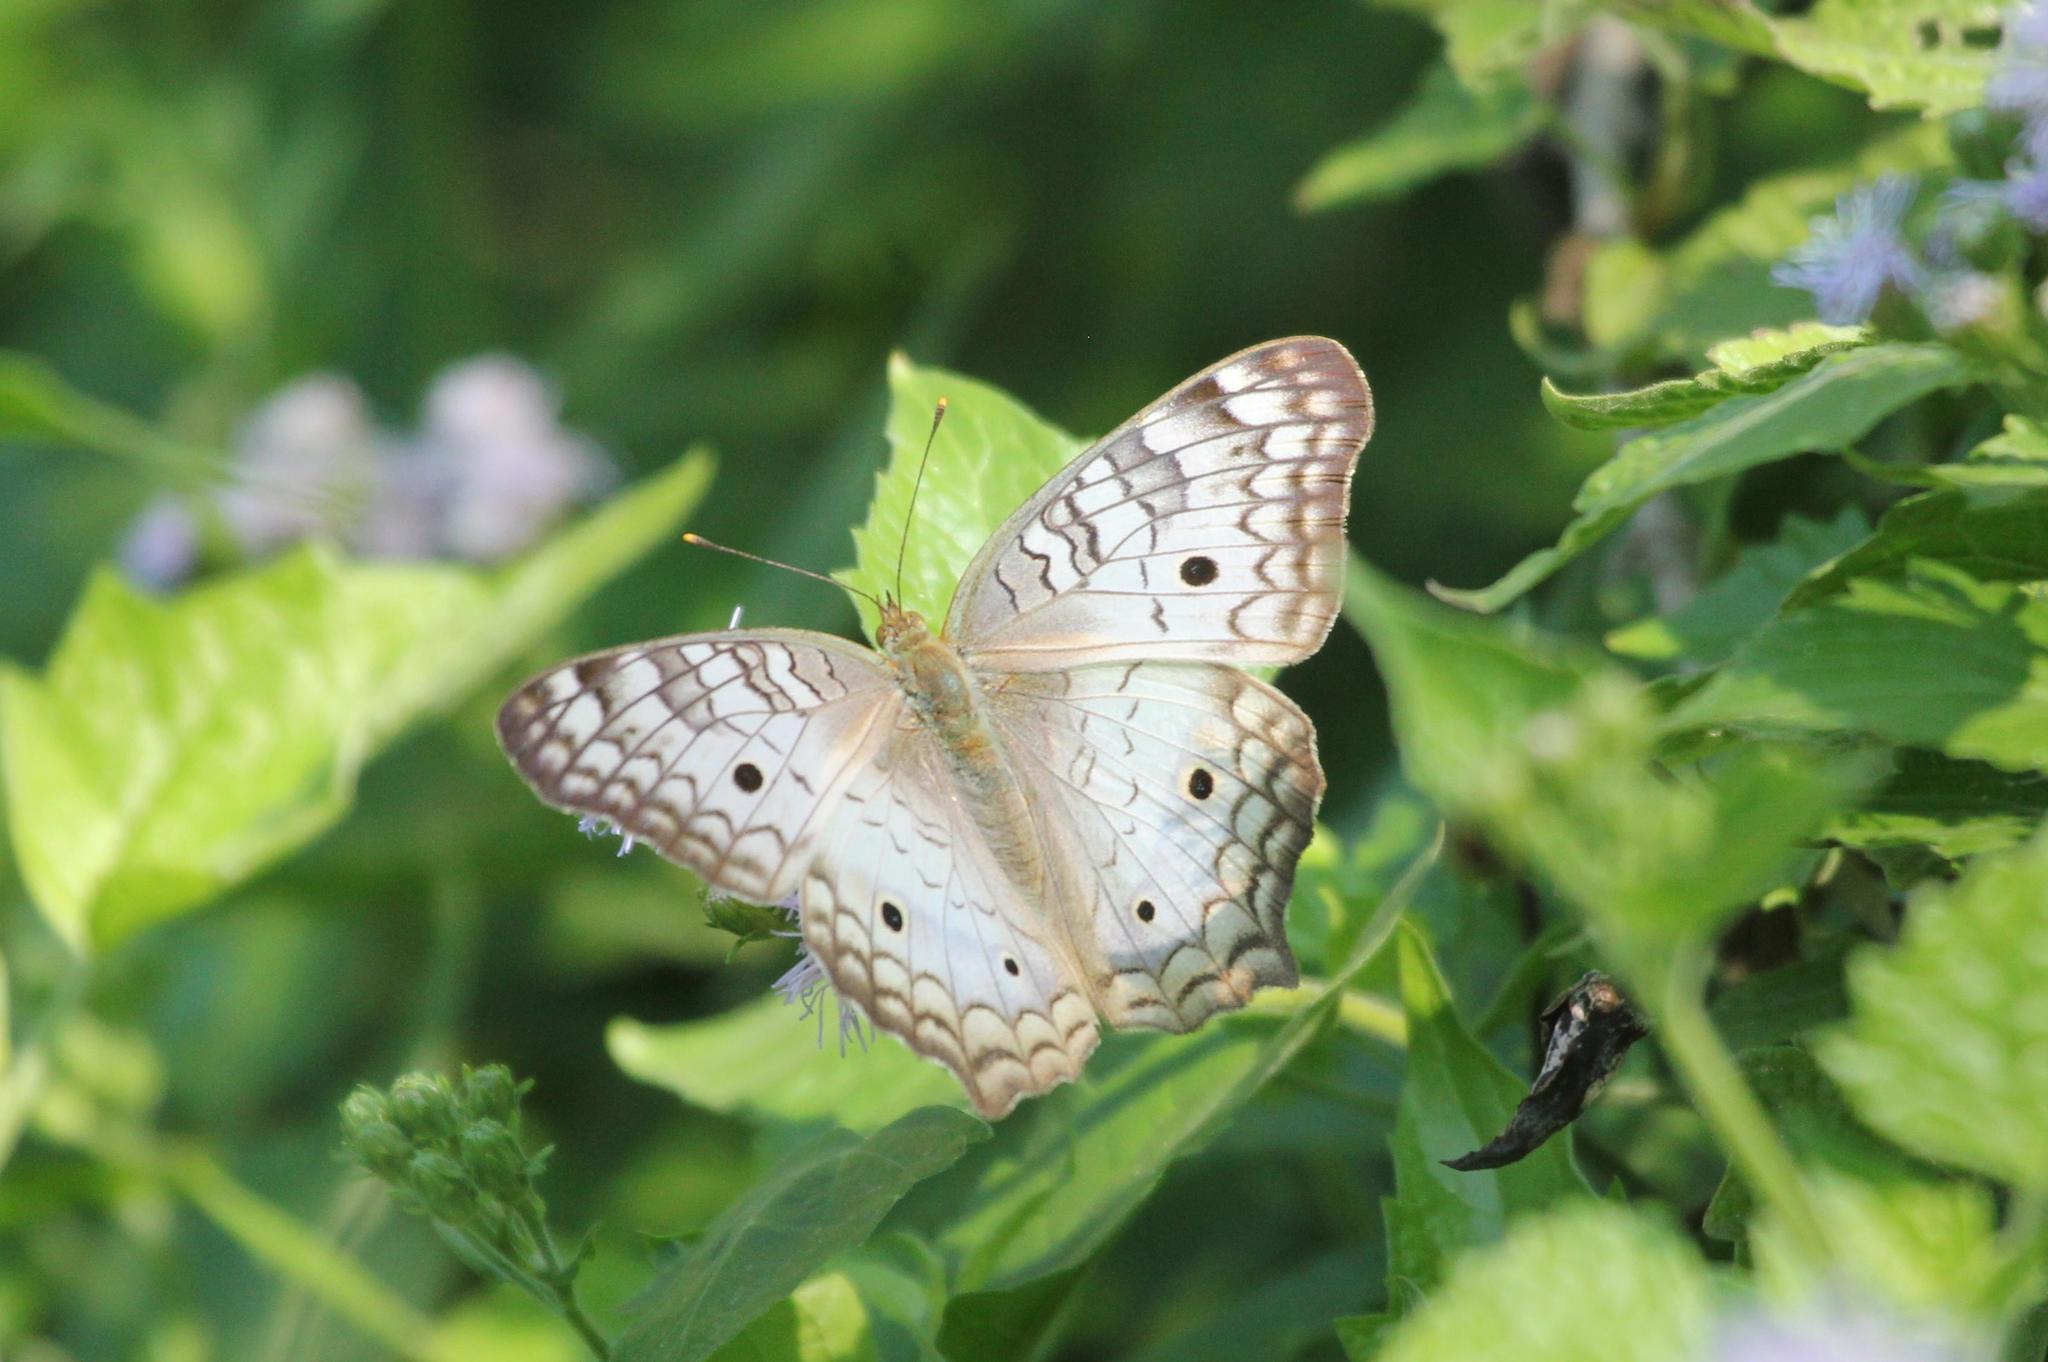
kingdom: Animalia
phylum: Arthropoda
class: Insecta
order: Lepidoptera
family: Nymphalidae
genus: Anartia
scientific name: Anartia jatrophae
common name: White peacock
